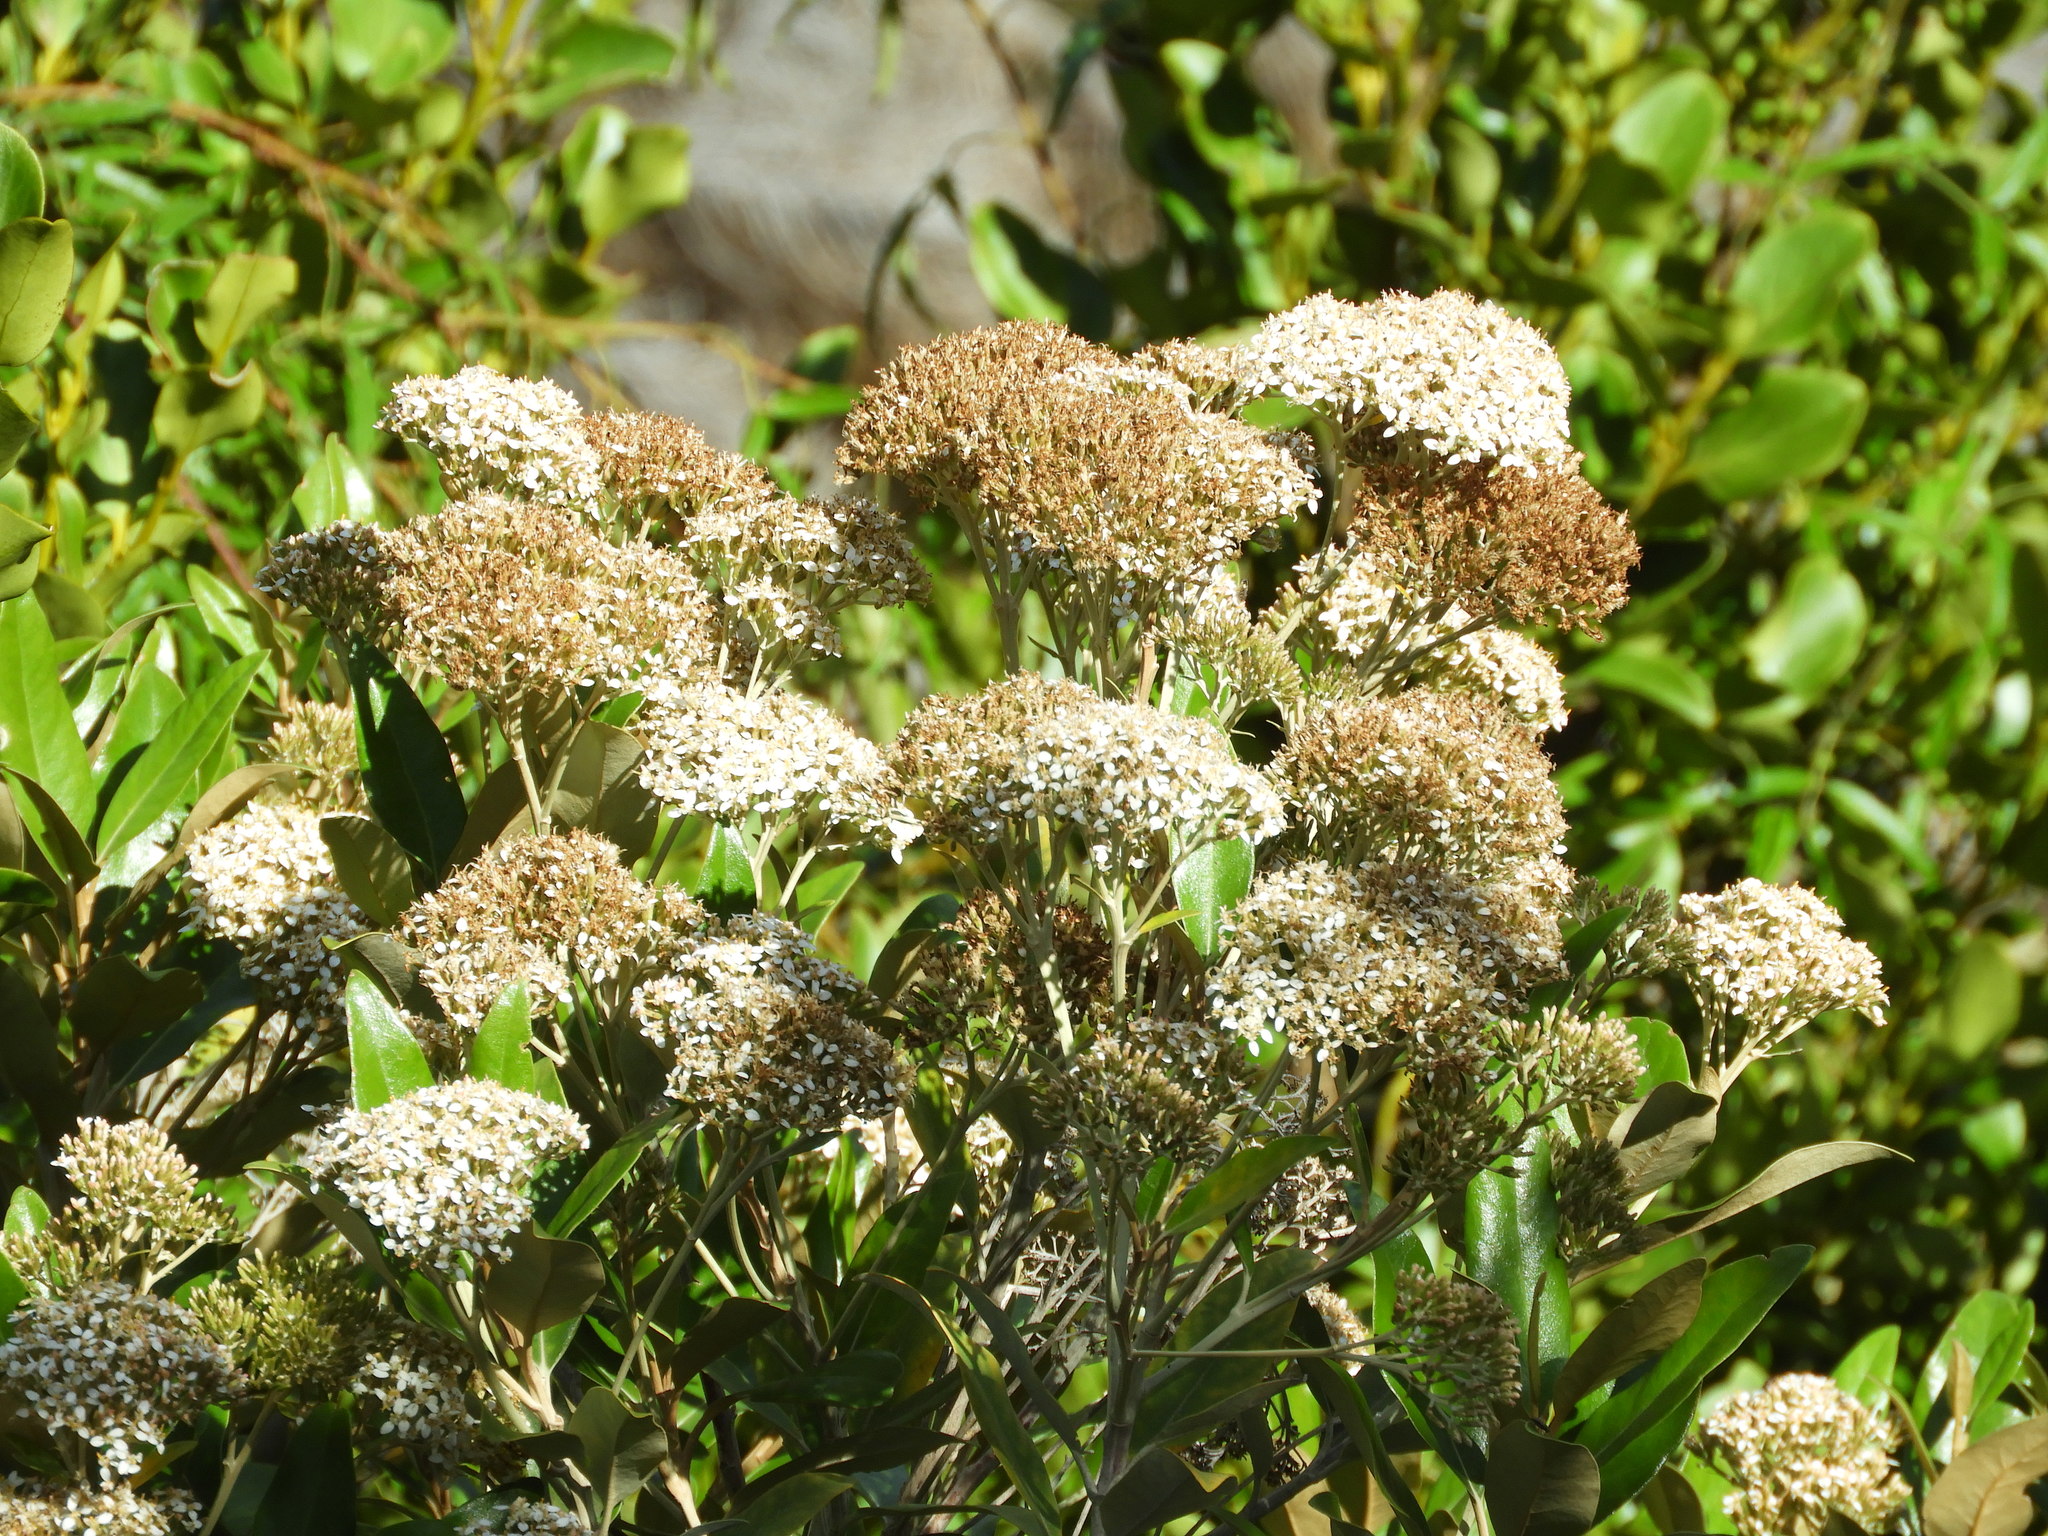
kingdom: Plantae
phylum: Tracheophyta
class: Magnoliopsida
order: Asterales
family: Asteraceae
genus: Olearia
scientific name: Olearia avicenniifolia
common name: Mangrove-leaf daisybush
